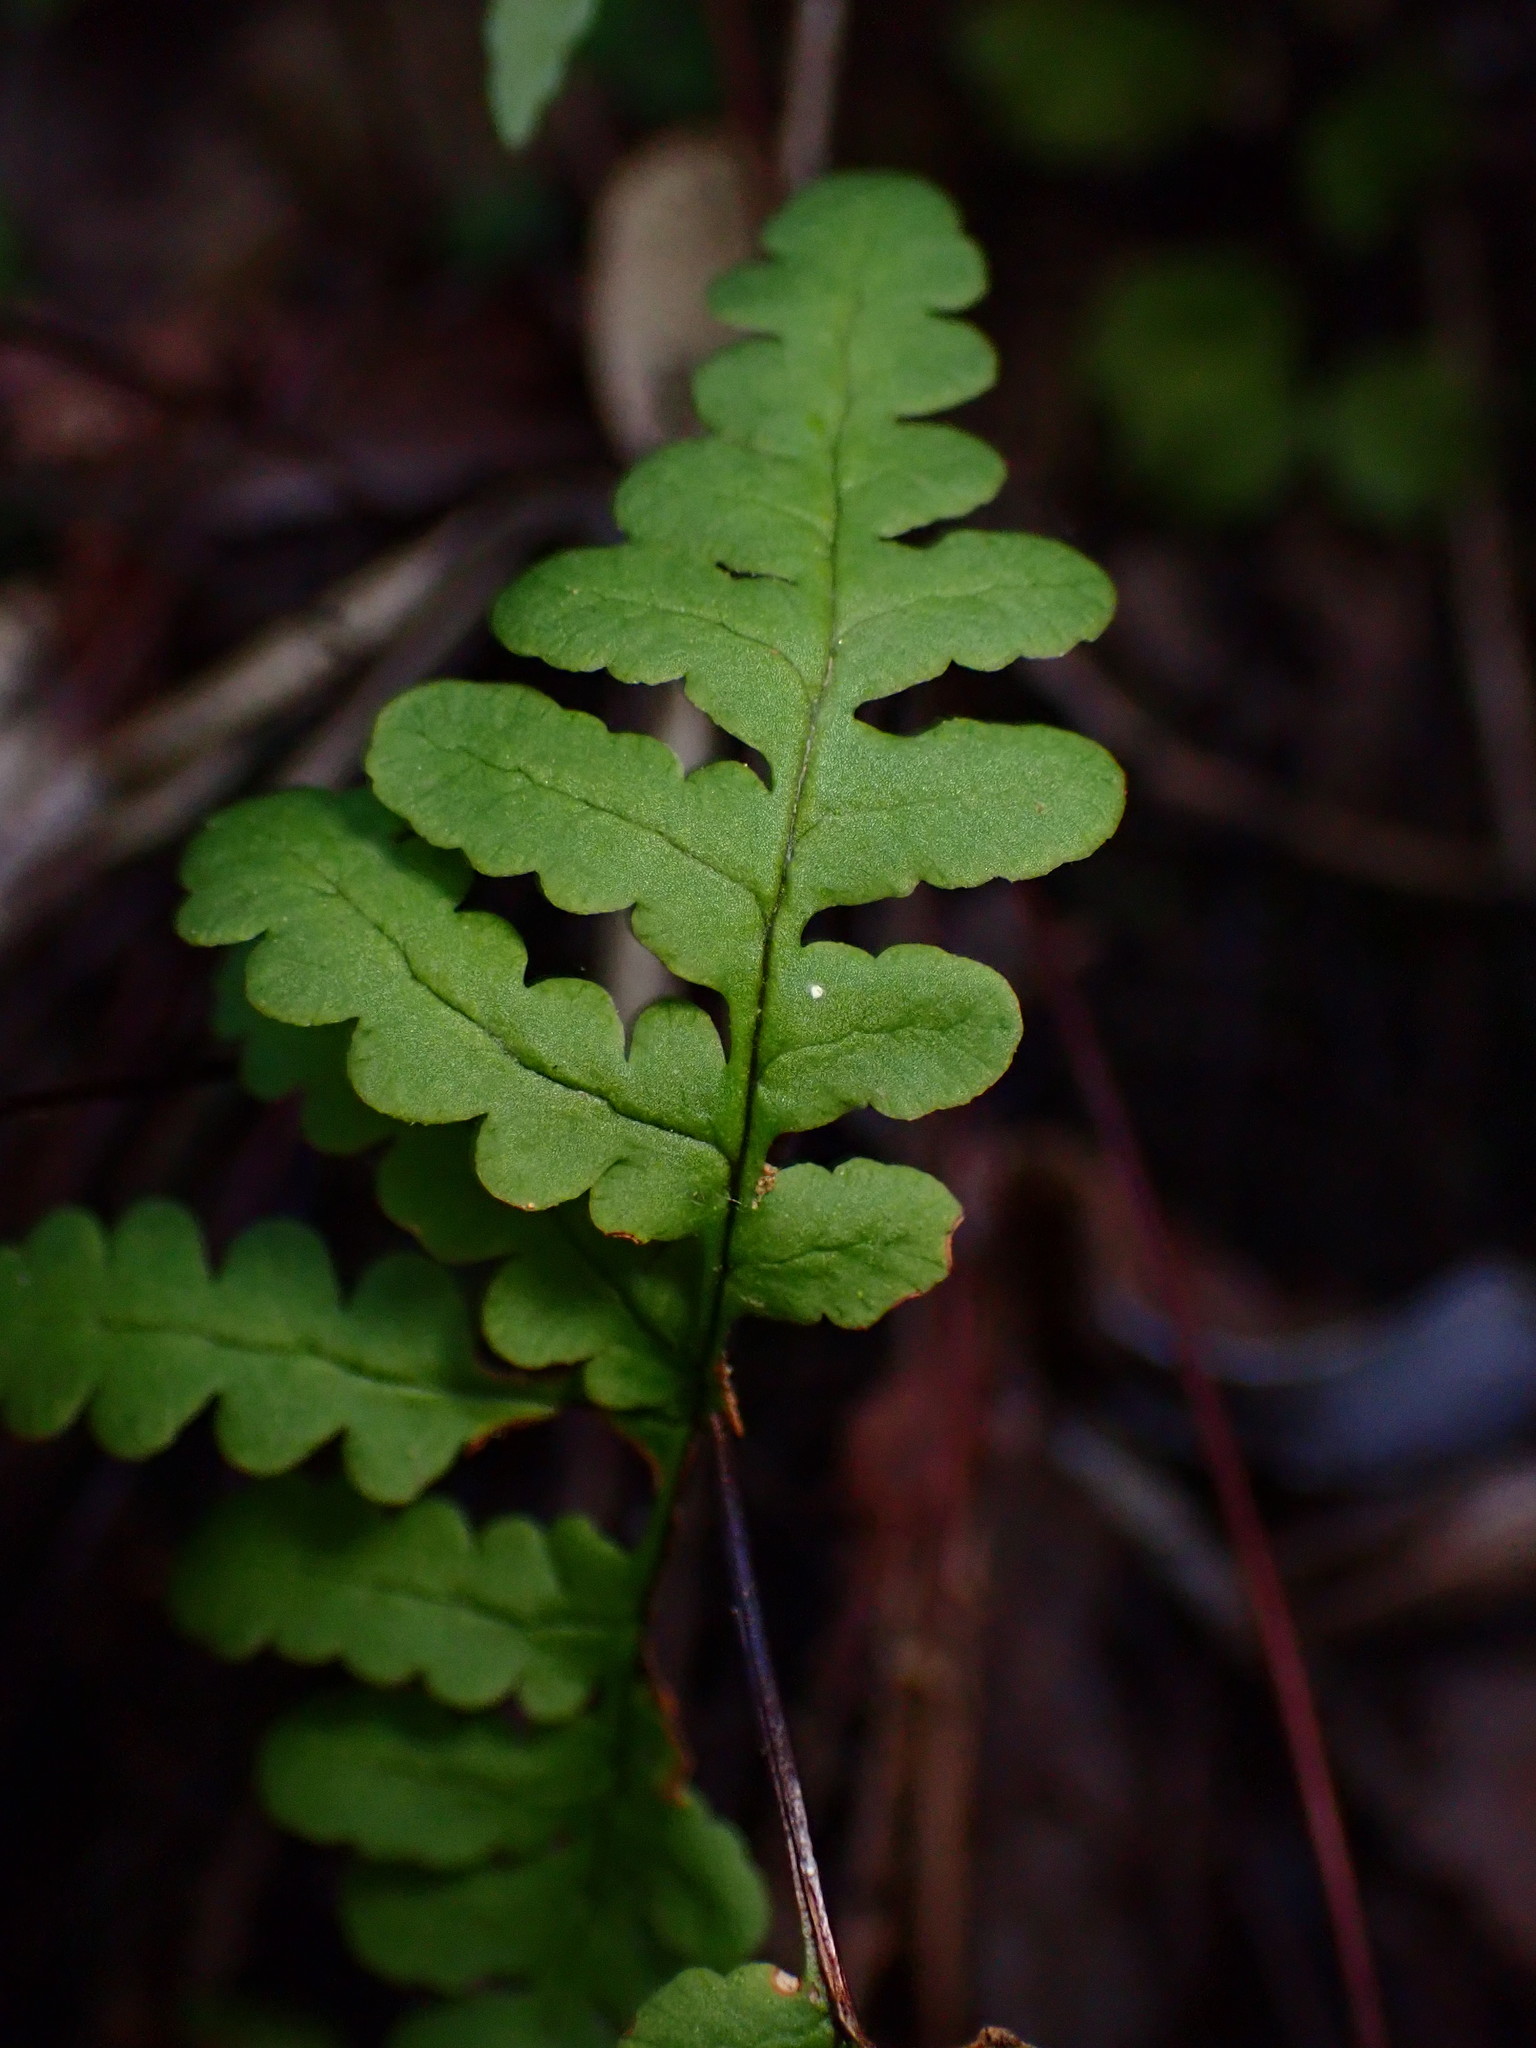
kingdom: Plantae
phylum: Tracheophyta
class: Polypodiopsida
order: Polypodiales
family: Pteridaceae
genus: Pentagramma
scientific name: Pentagramma triangularis
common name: Gold fern
